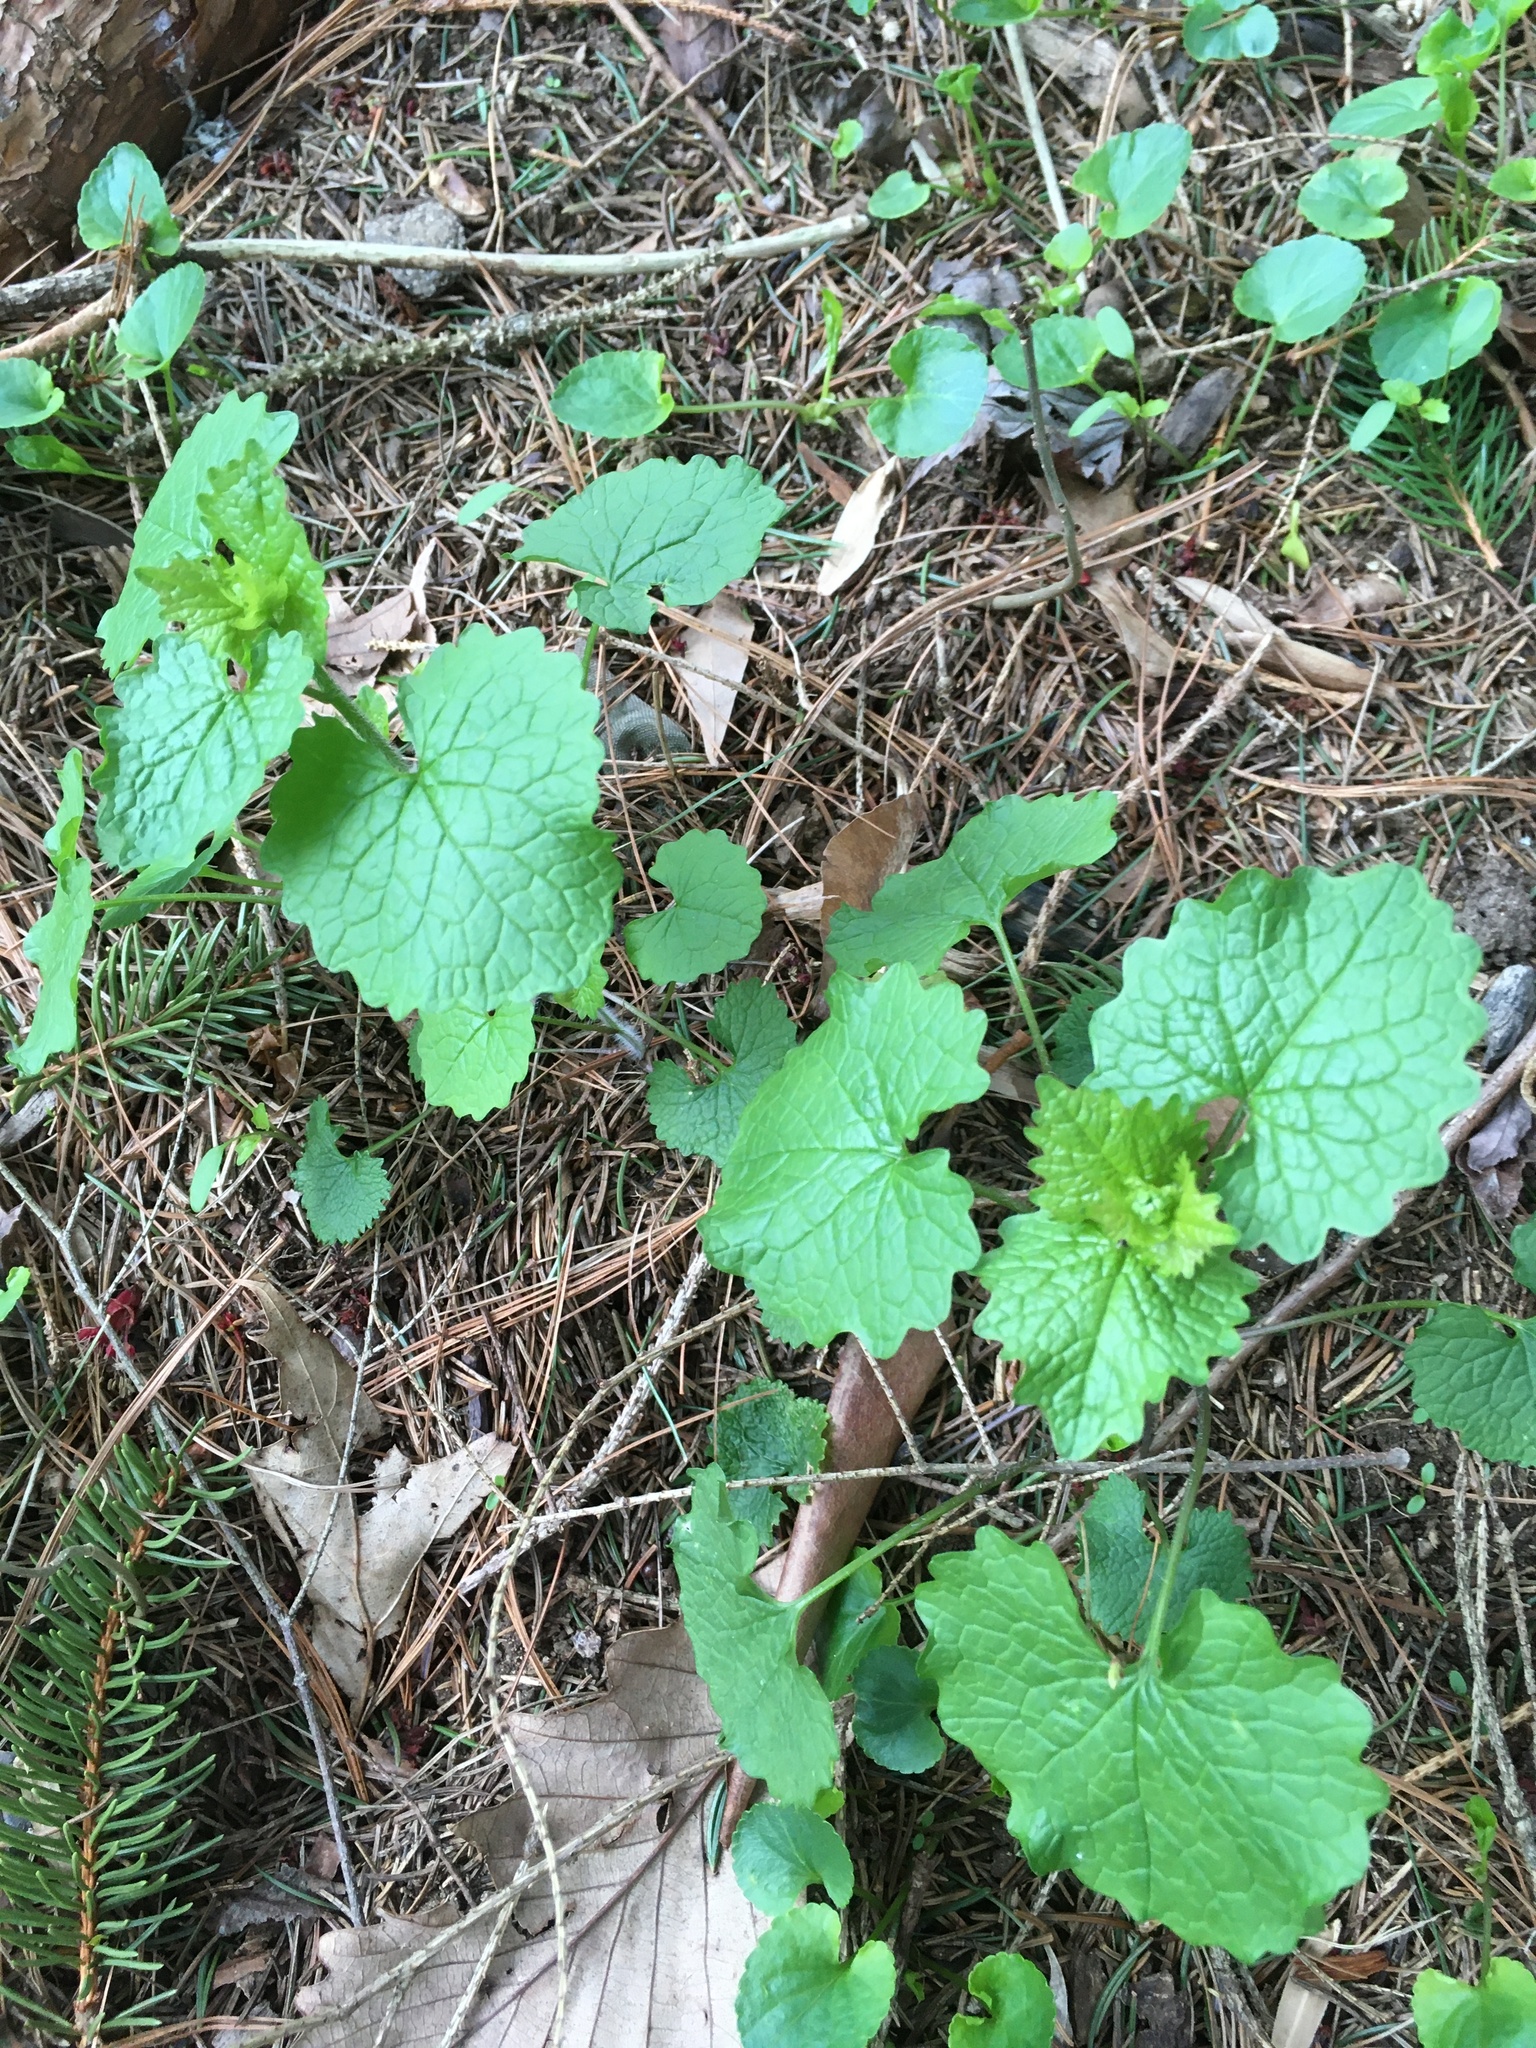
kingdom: Plantae
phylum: Tracheophyta
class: Magnoliopsida
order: Brassicales
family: Brassicaceae
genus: Alliaria
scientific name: Alliaria petiolata
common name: Garlic mustard
